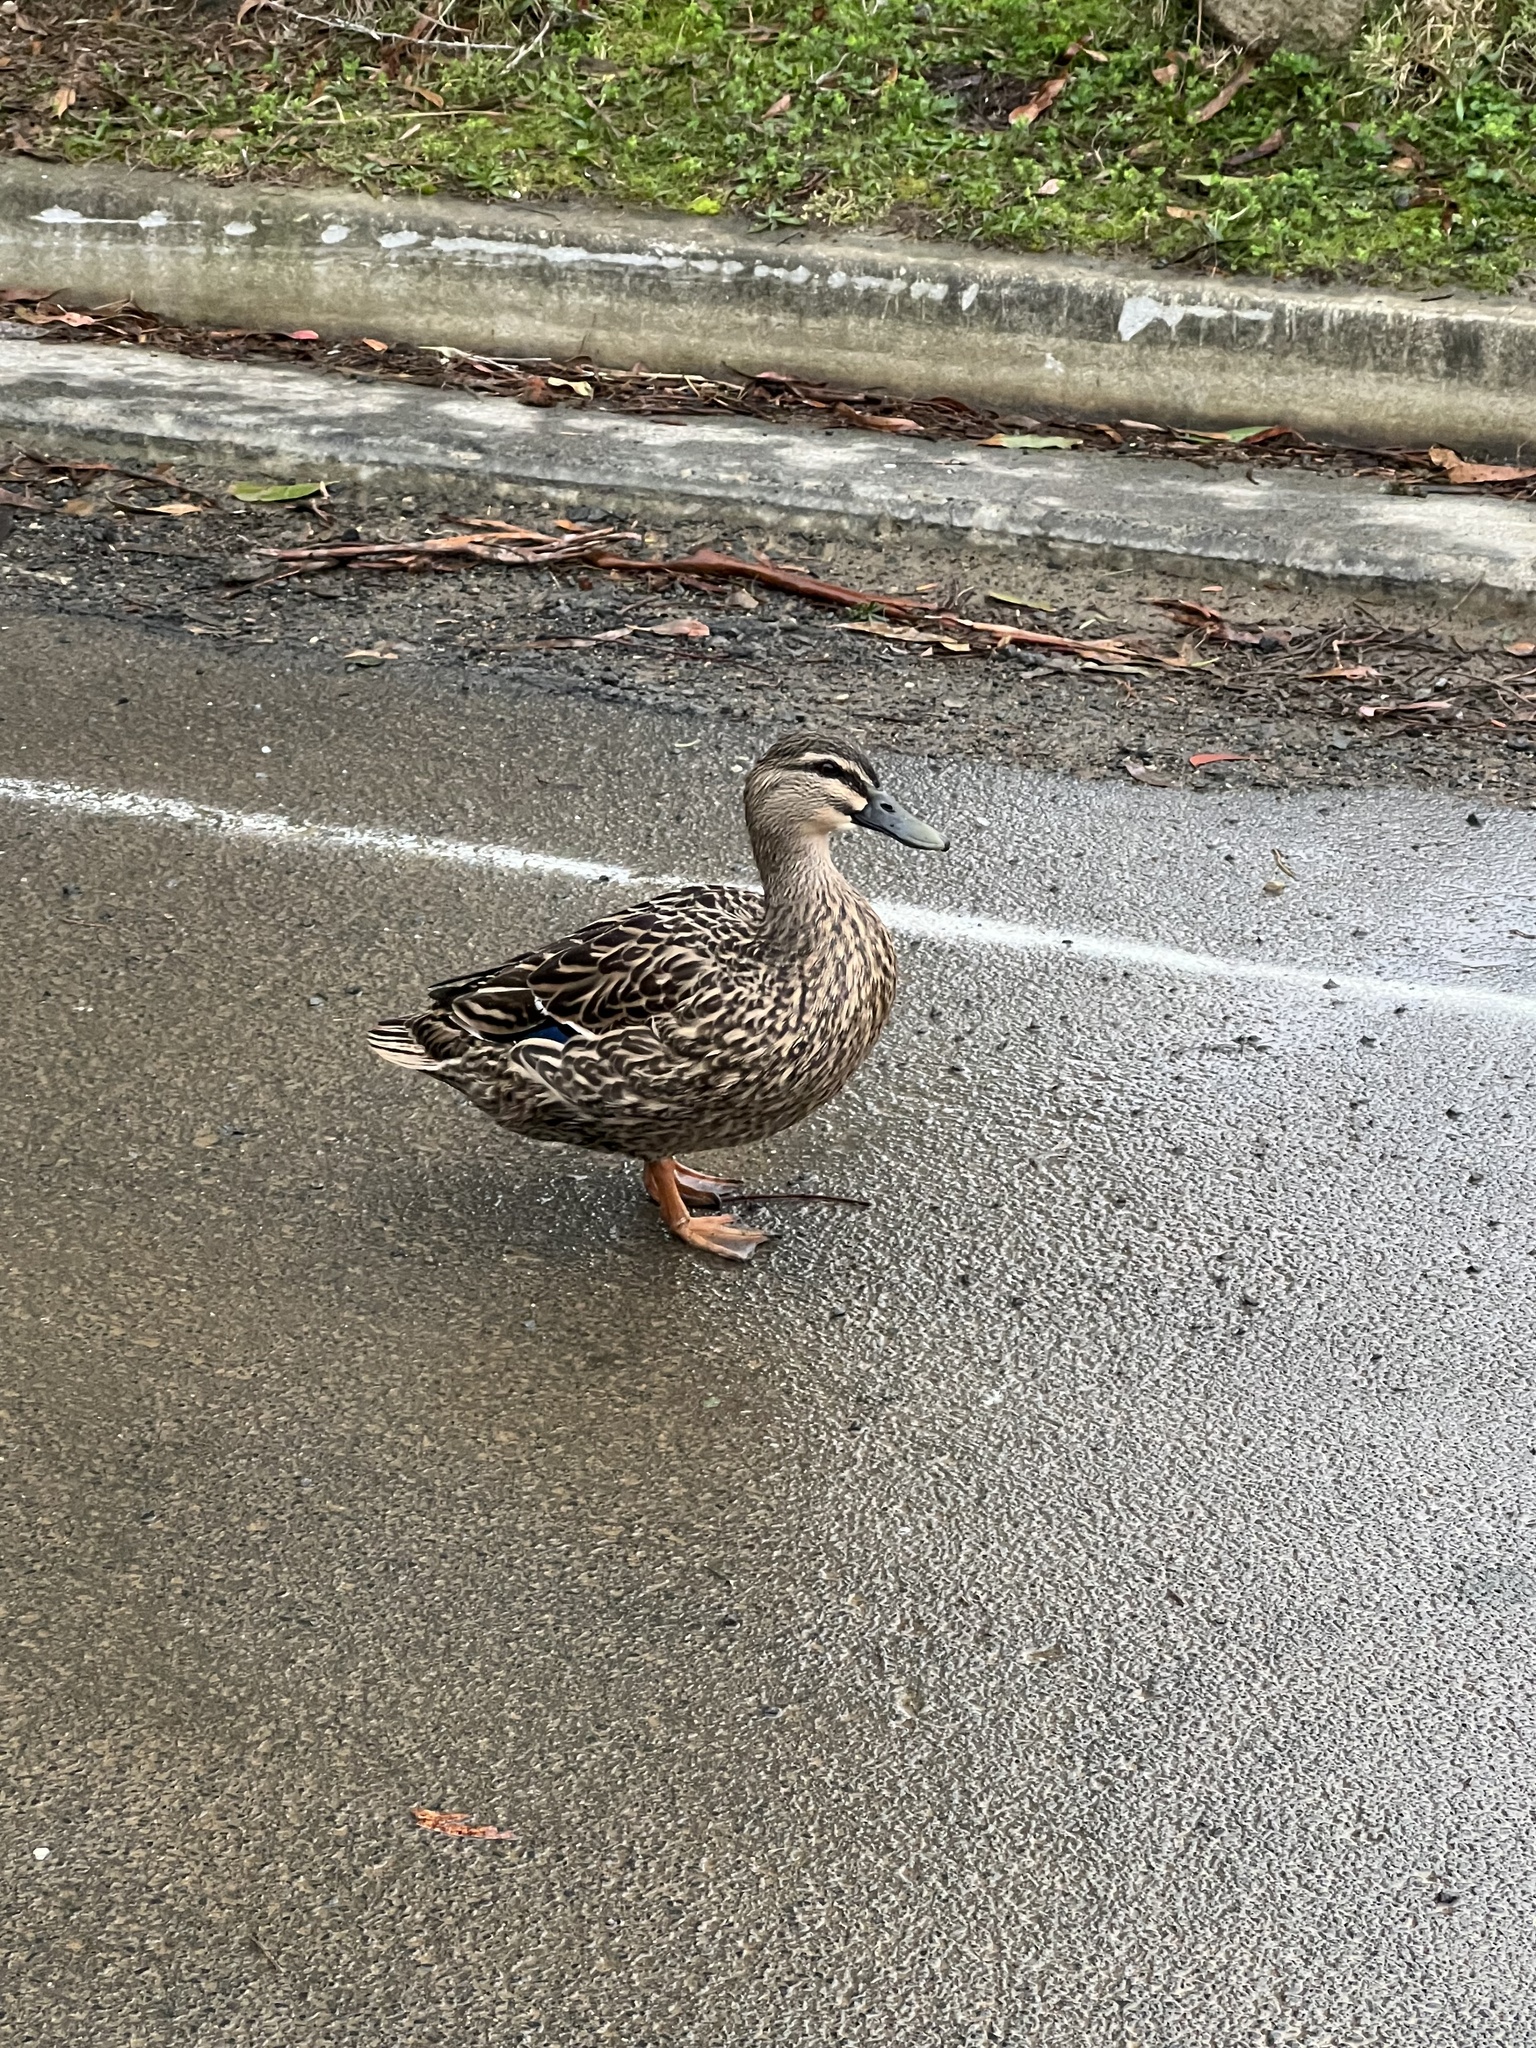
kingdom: Animalia
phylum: Chordata
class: Aves
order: Anseriformes
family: Anatidae
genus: Anas
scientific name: Anas
